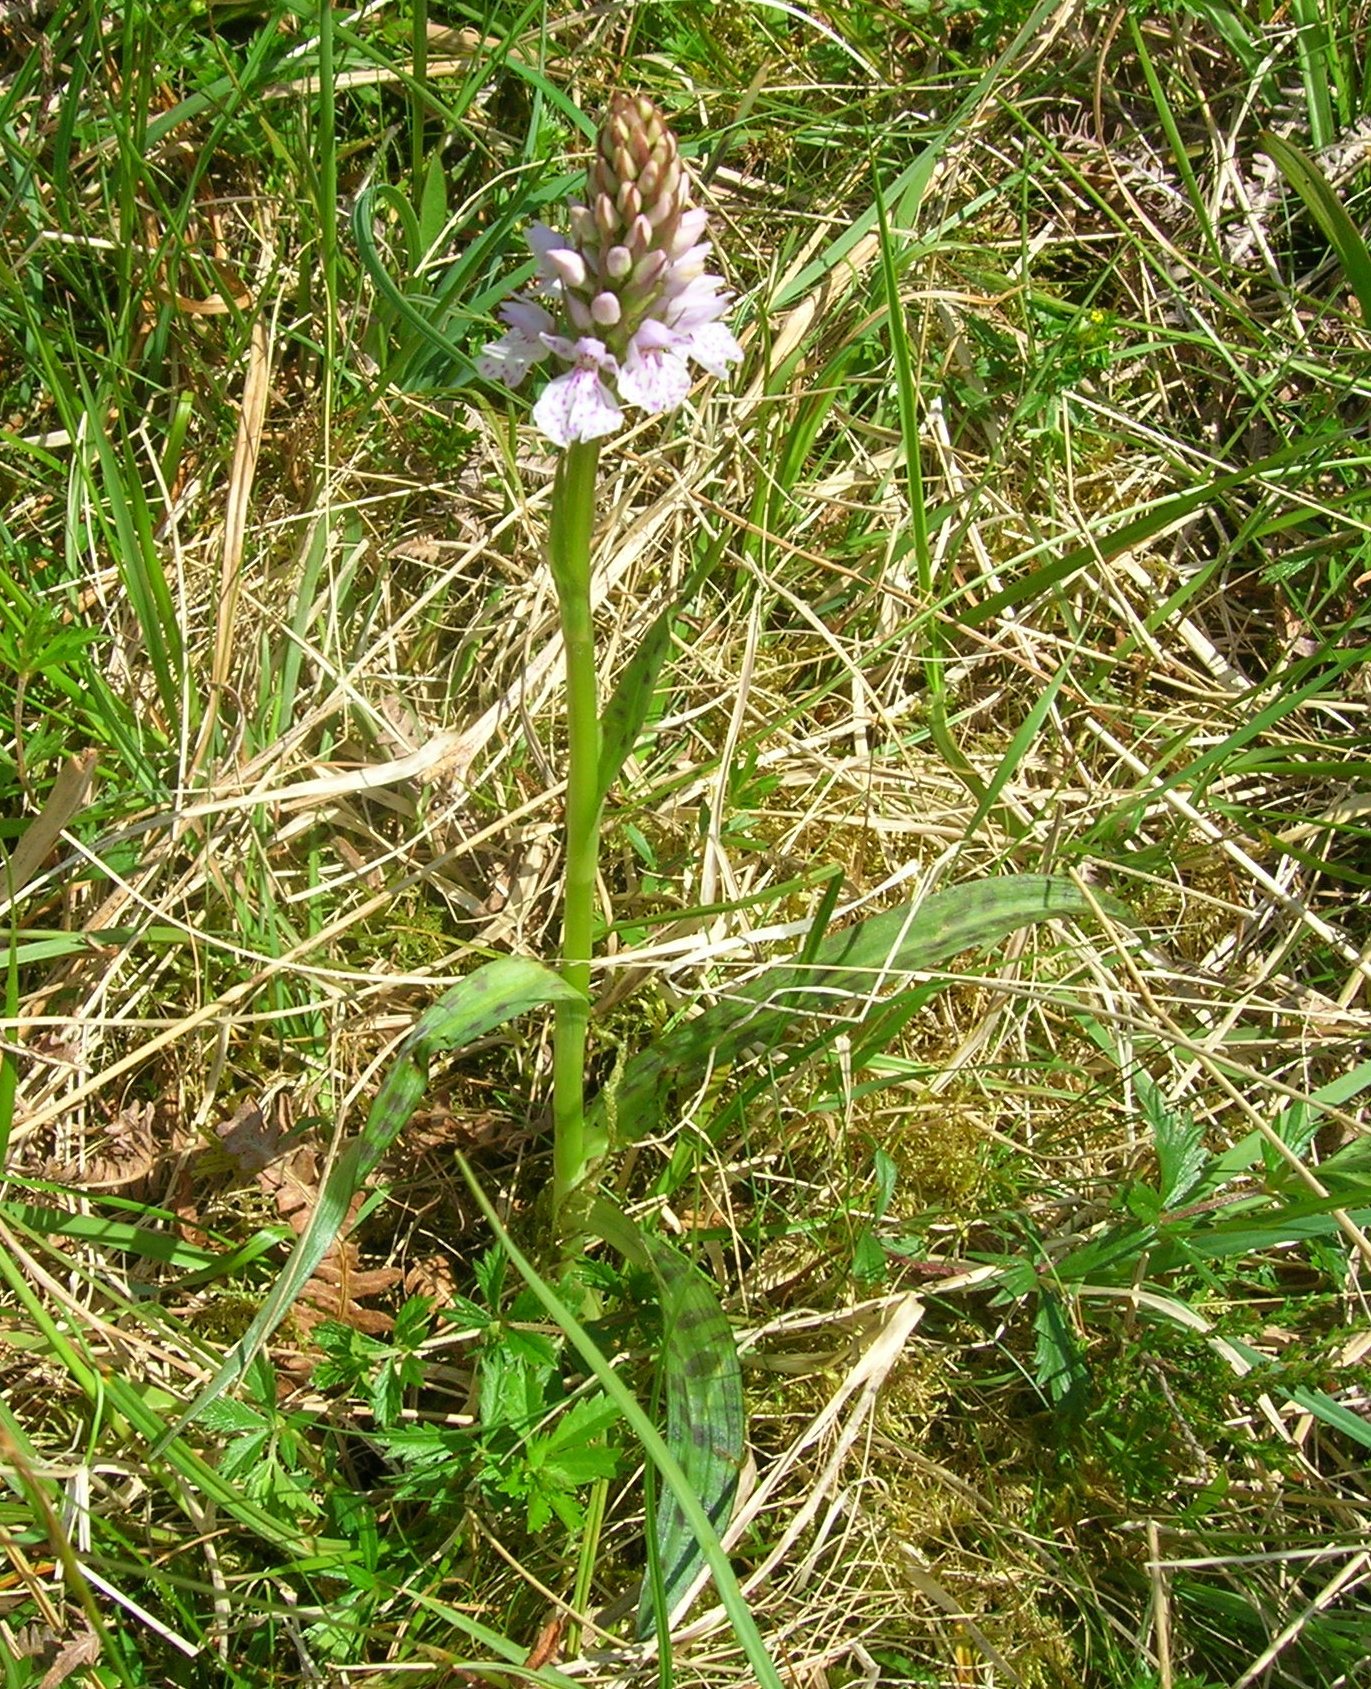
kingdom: Plantae
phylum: Tracheophyta
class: Liliopsida
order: Asparagales
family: Orchidaceae
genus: Dactylorhiza
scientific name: Dactylorhiza maculata
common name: Heath spotted-orchid
